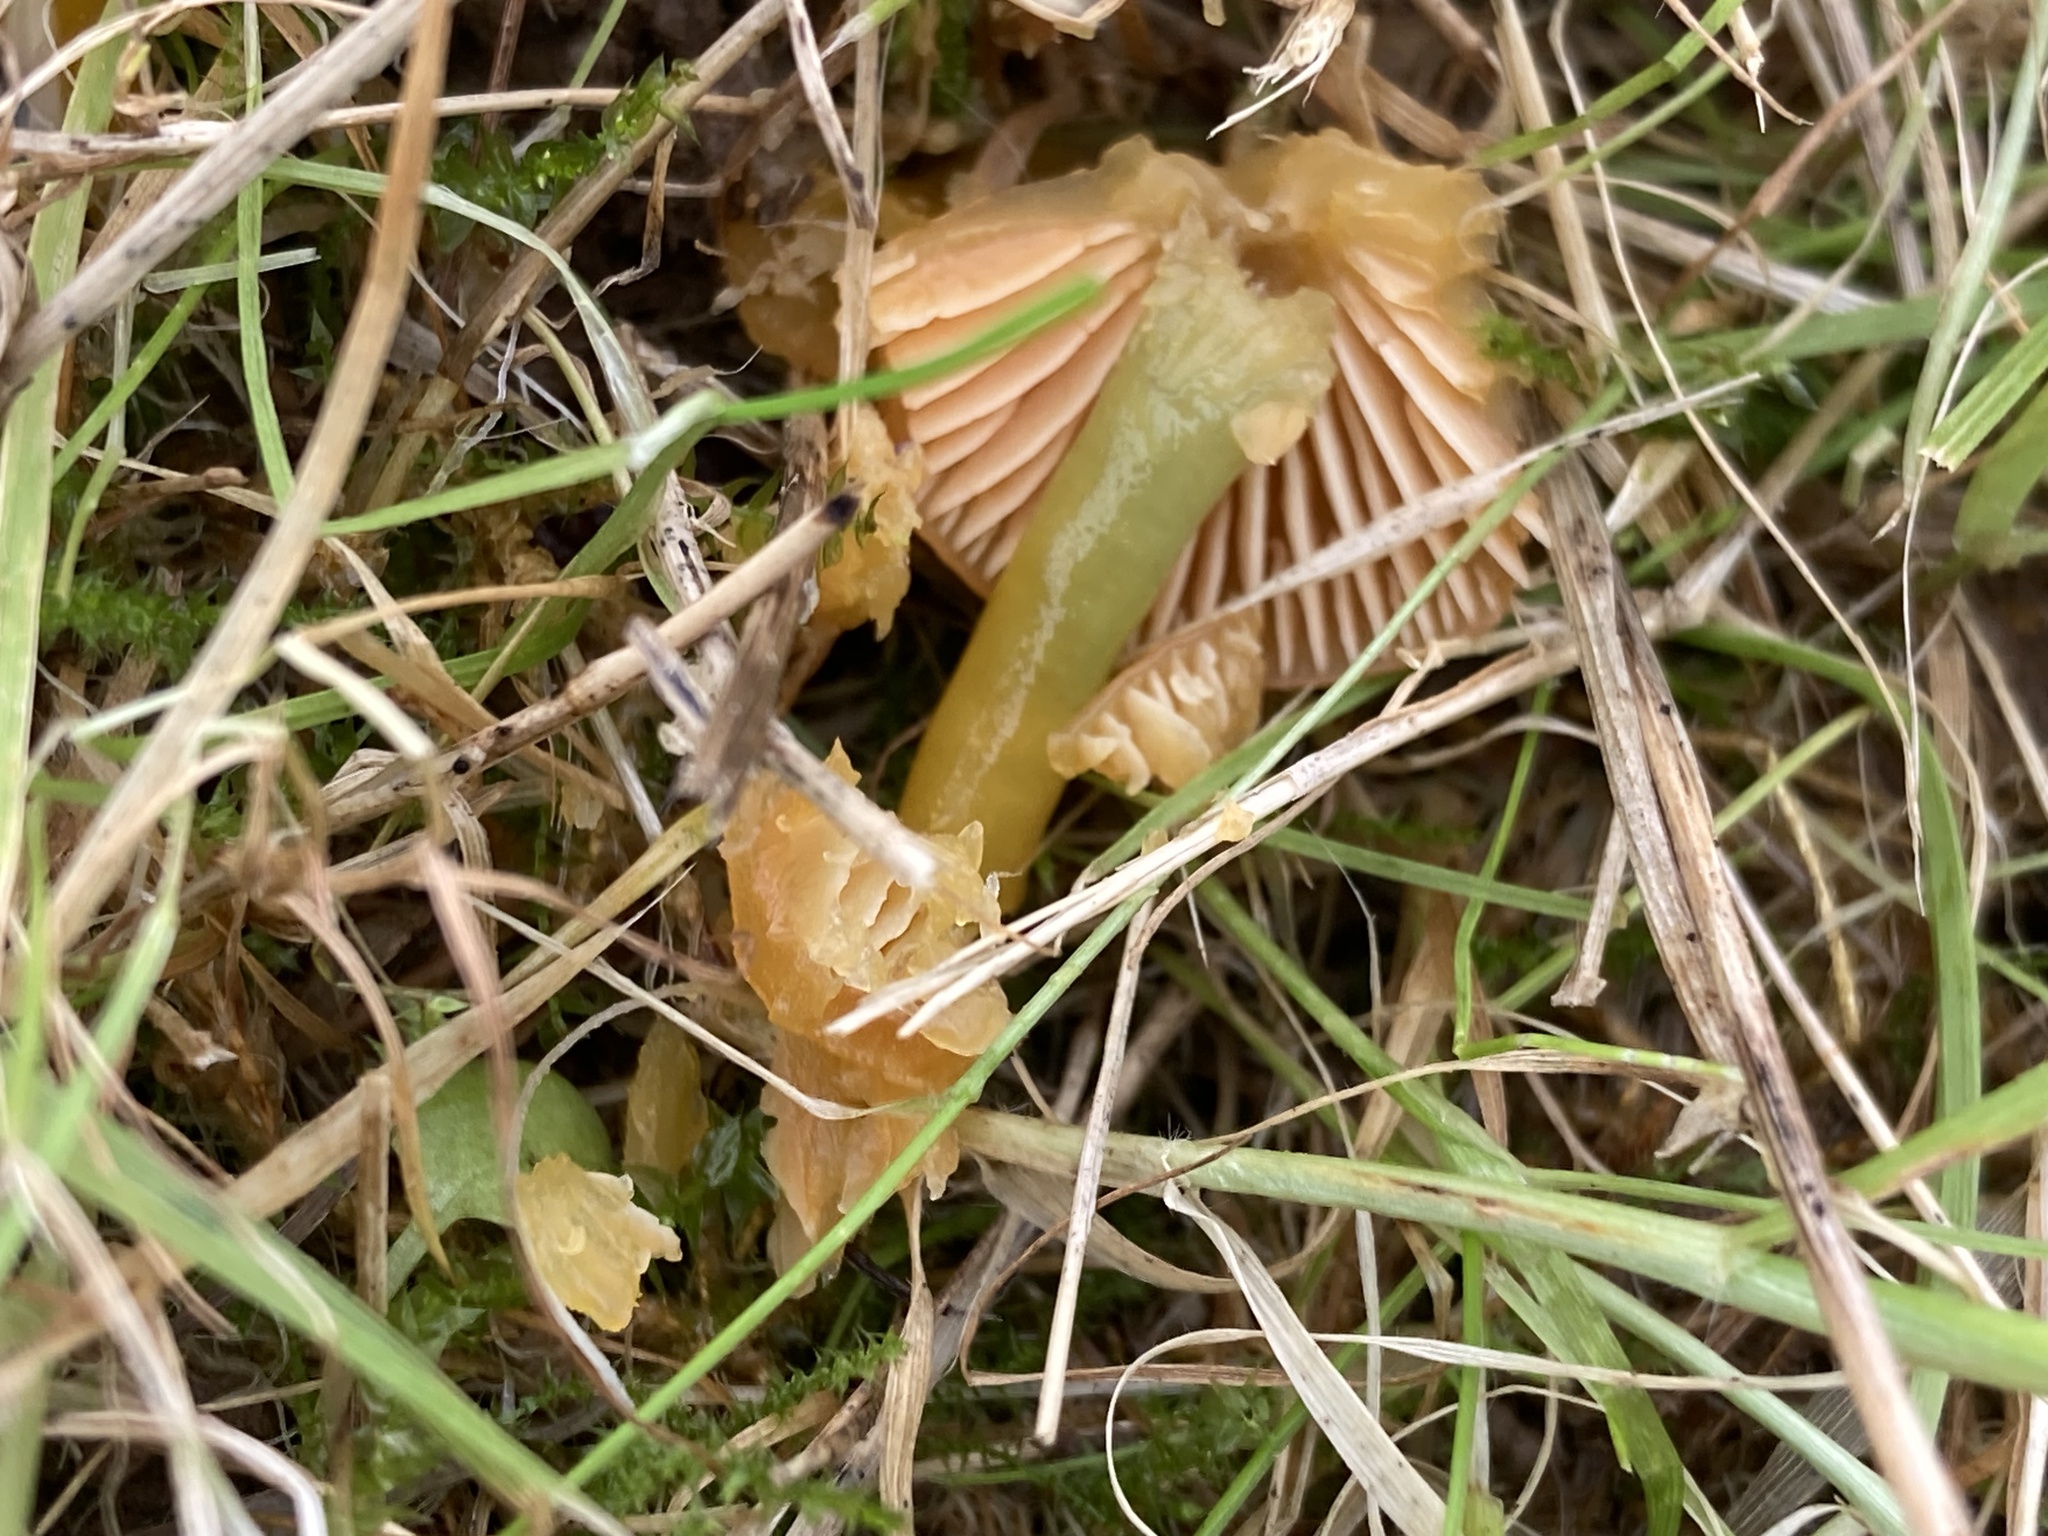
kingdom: Fungi
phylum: Basidiomycota
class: Agaricomycetes
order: Agaricales
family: Hygrophoraceae
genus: Gliophorus
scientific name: Gliophorus psittacinus
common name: Parrot wax-cap
